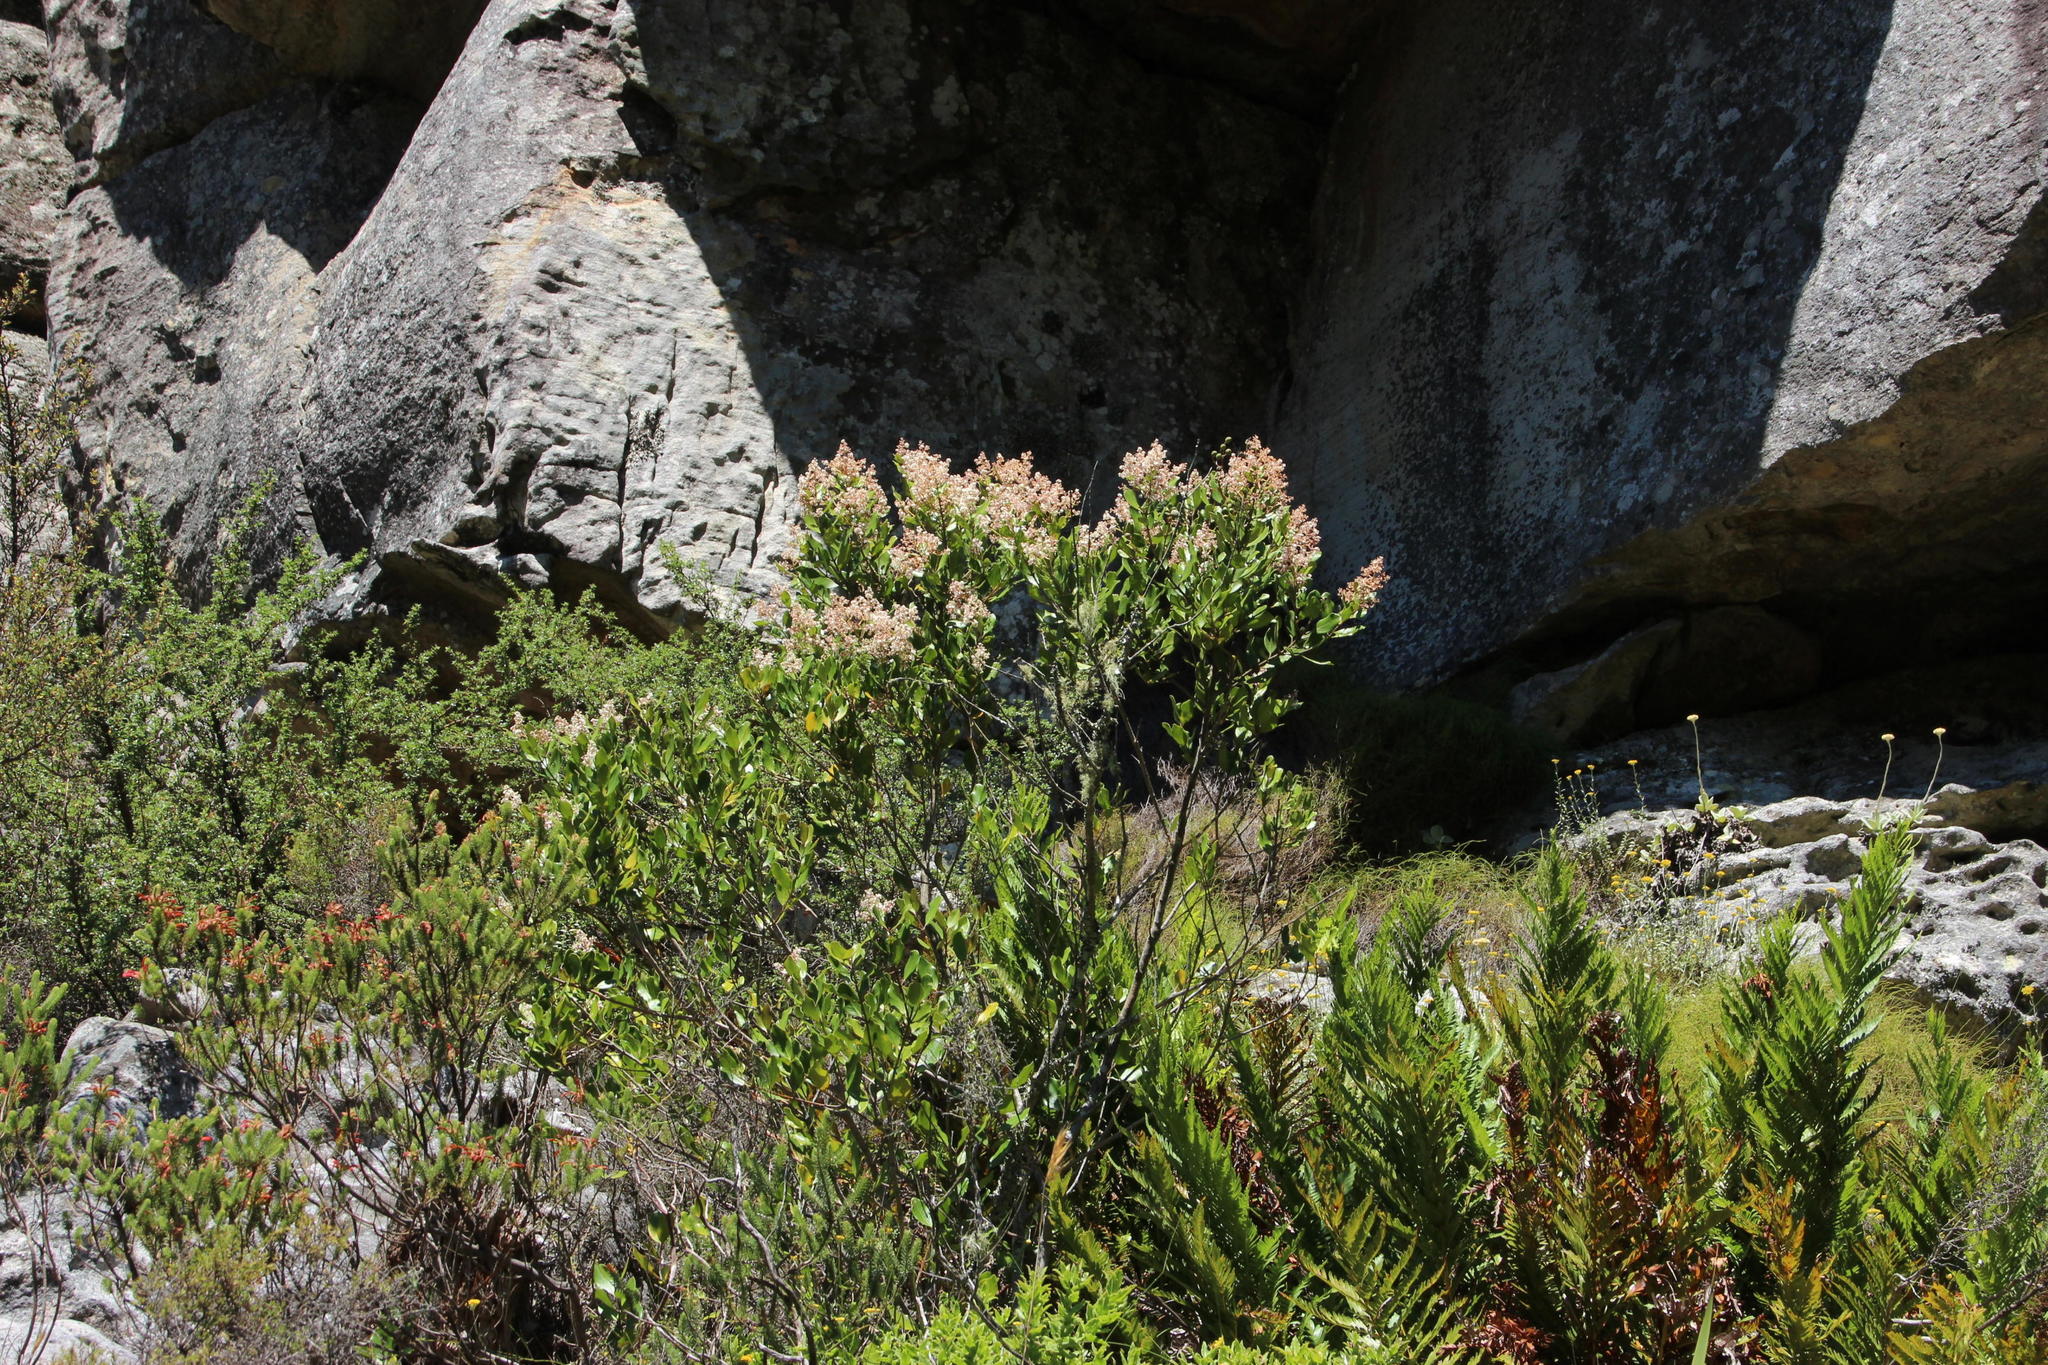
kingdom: Plantae
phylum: Tracheophyta
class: Magnoliopsida
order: Asterales
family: Asteraceae
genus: Brachylaena
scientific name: Brachylaena neriifolia
